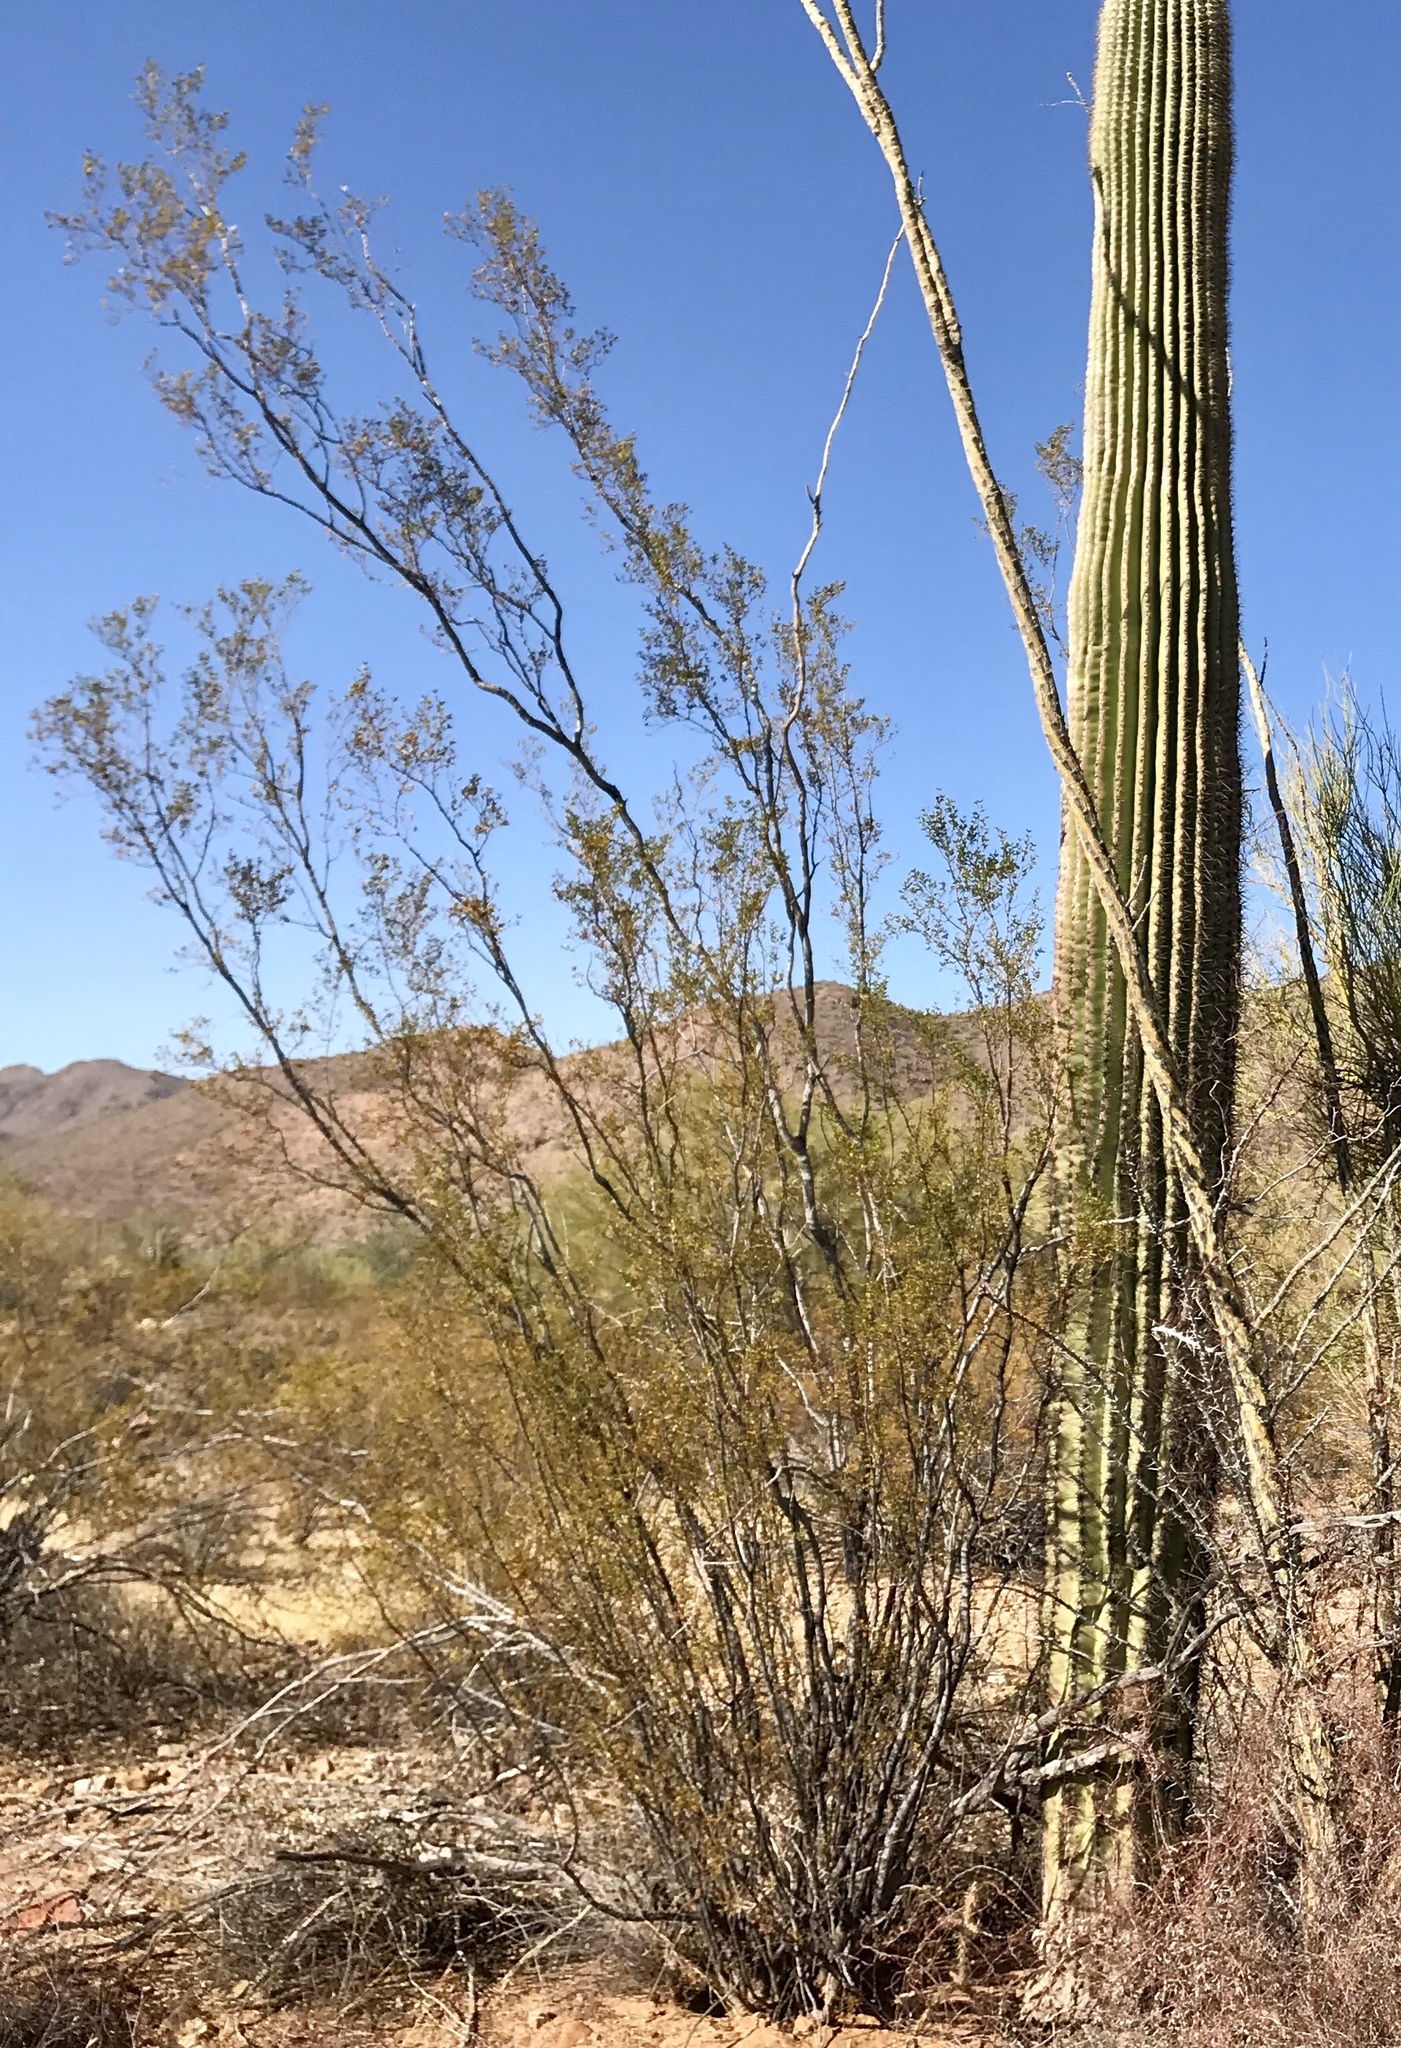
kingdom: Plantae
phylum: Tracheophyta
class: Magnoliopsida
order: Zygophyllales
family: Zygophyllaceae
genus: Larrea
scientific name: Larrea tridentata
